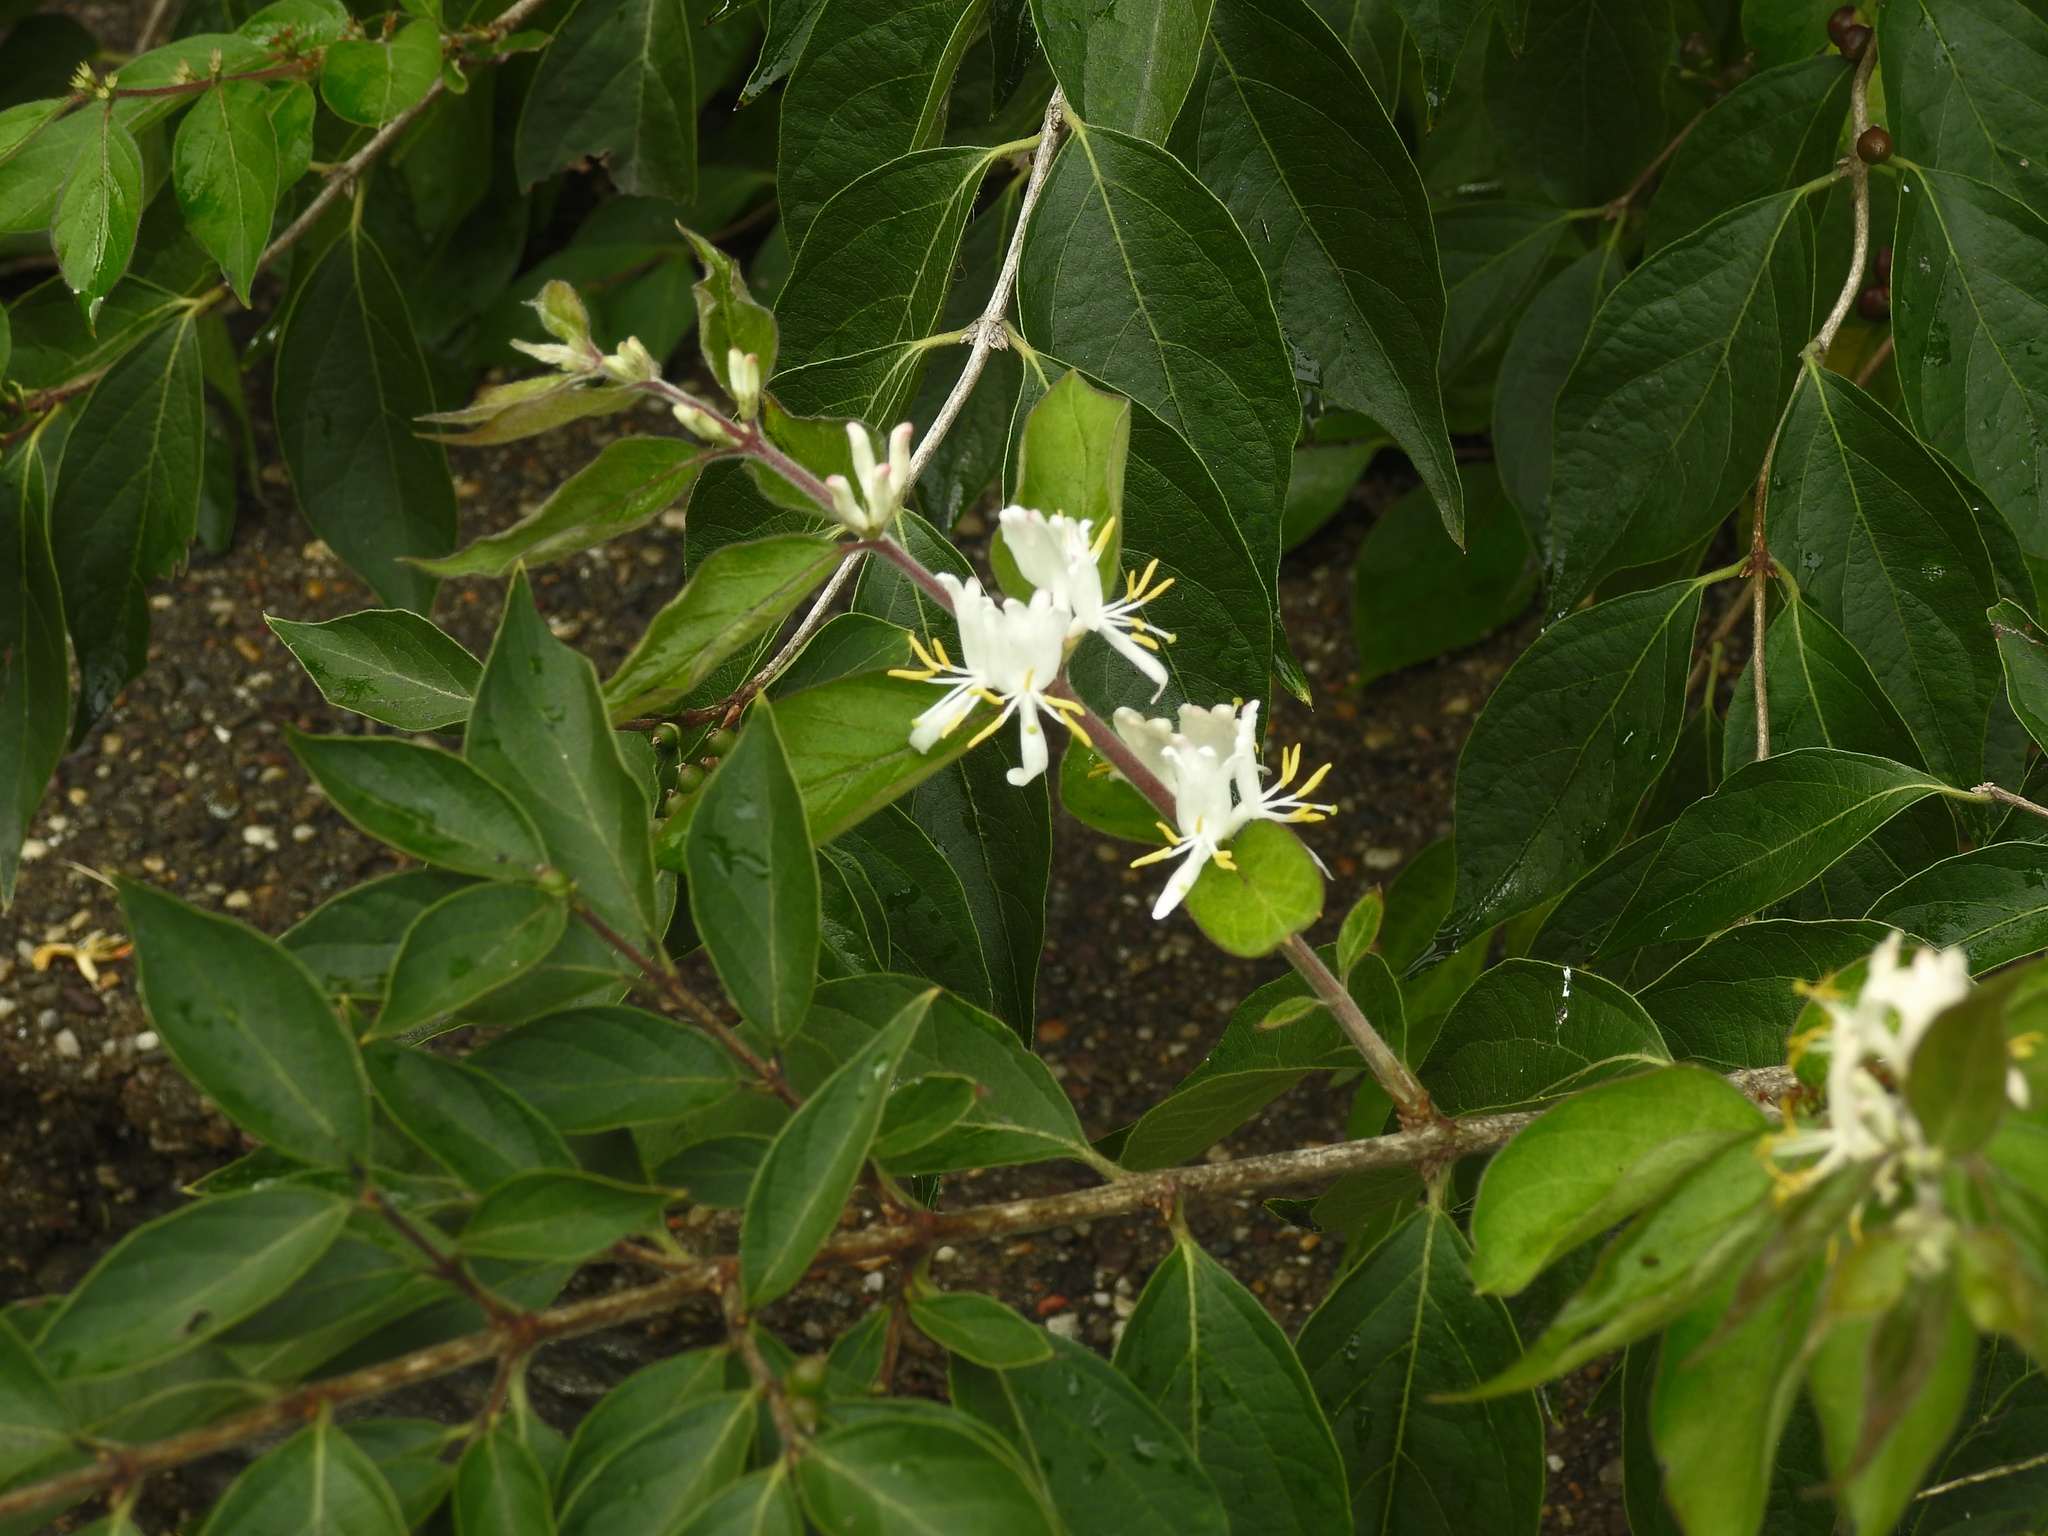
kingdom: Plantae
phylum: Tracheophyta
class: Magnoliopsida
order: Dipsacales
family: Caprifoliaceae
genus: Lonicera
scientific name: Lonicera maackii
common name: Amur honeysuckle
